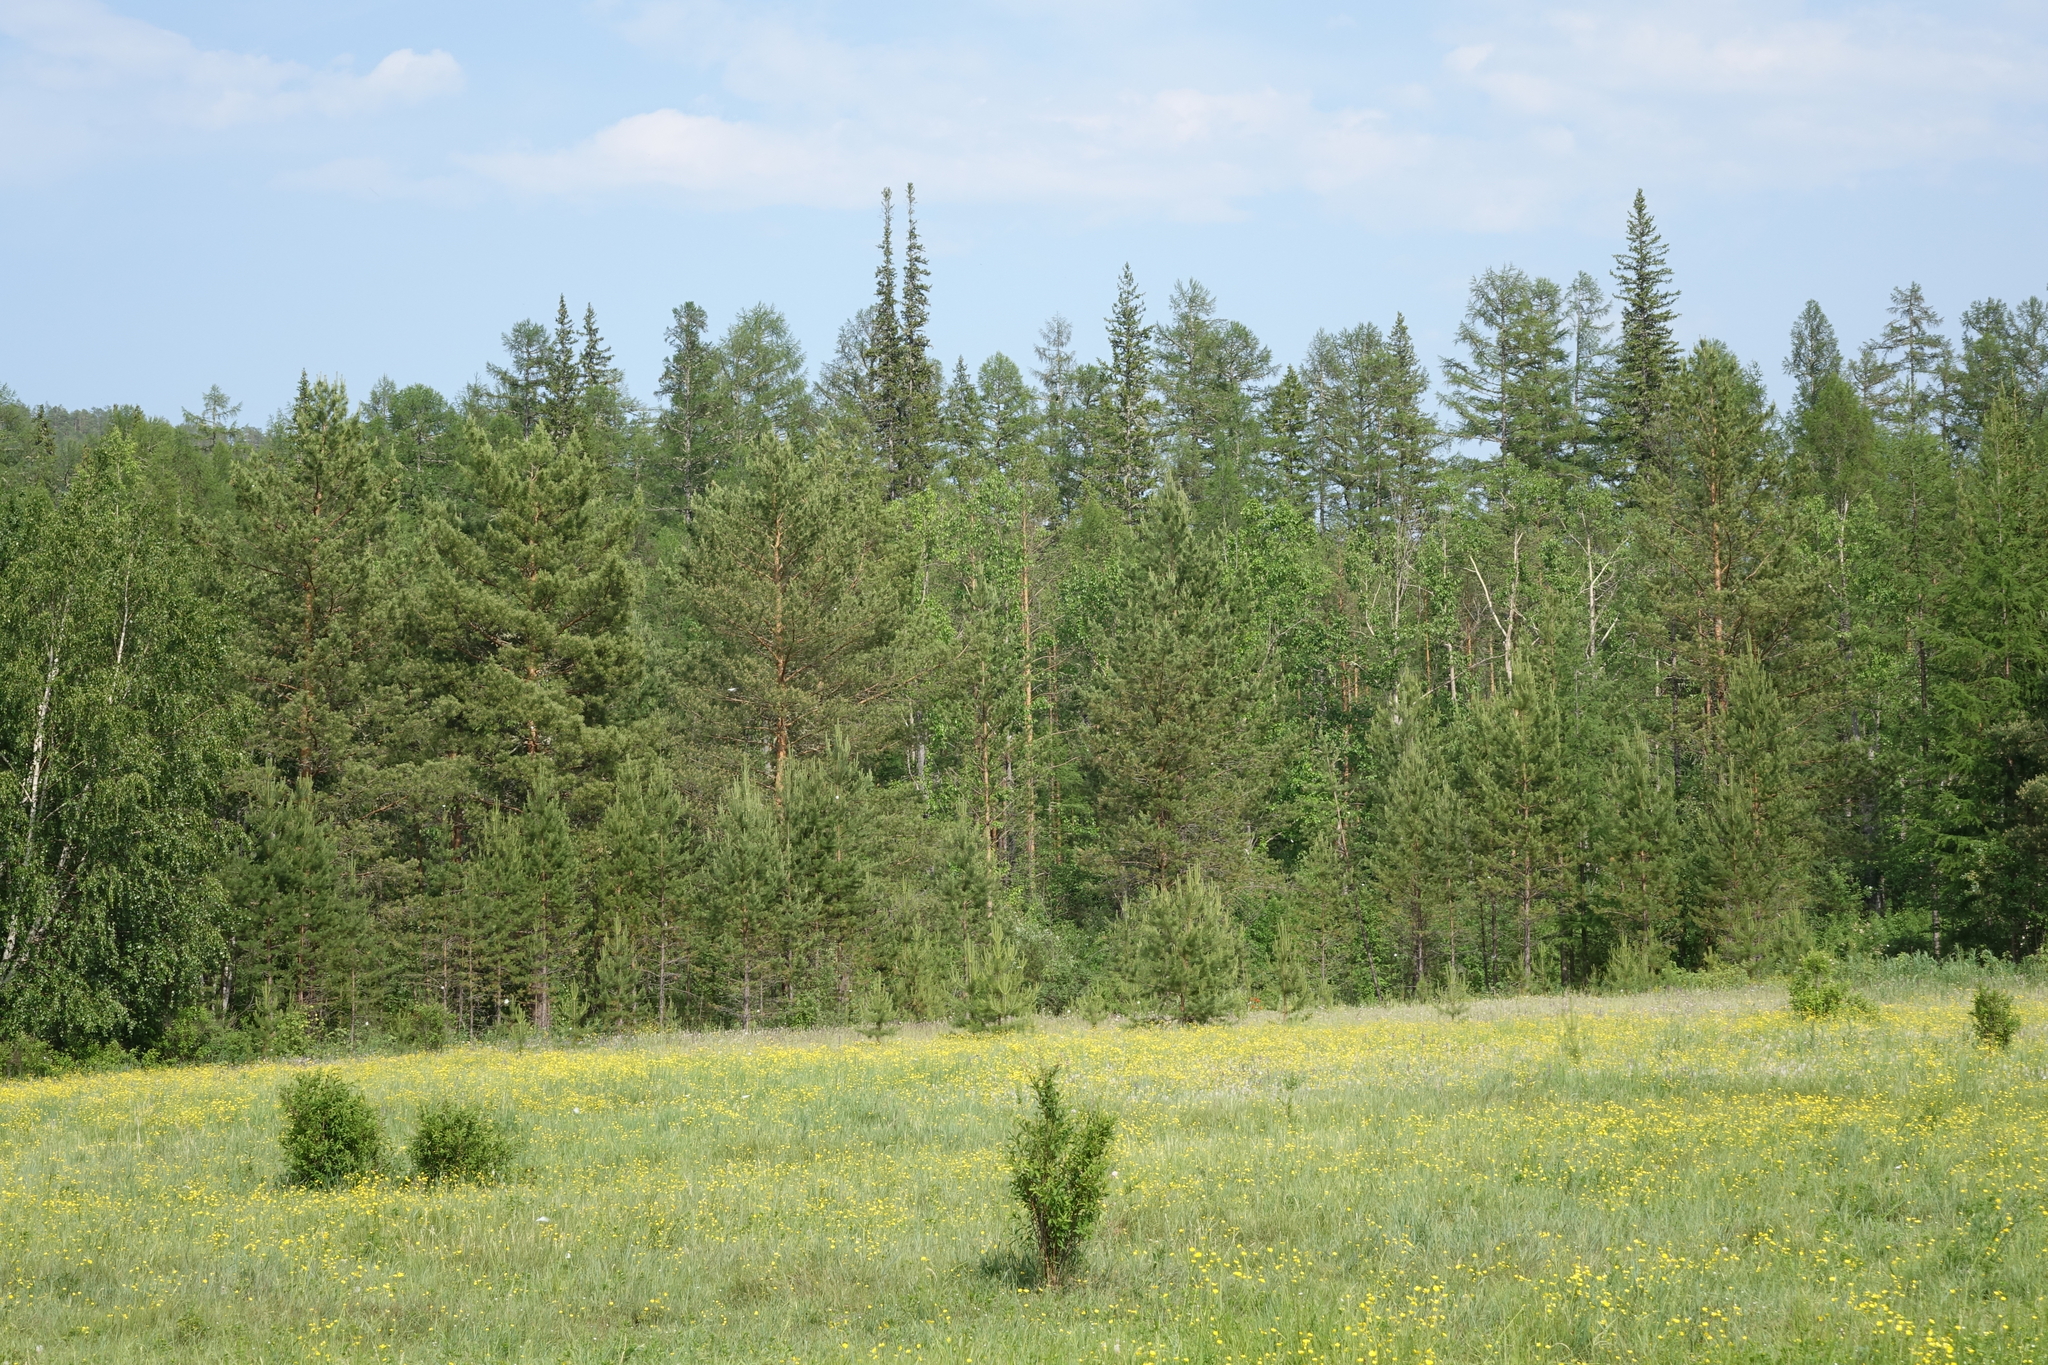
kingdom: Plantae
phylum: Tracheophyta
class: Pinopsida
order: Pinales
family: Pinaceae
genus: Larix
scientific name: Larix gmelinii
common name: Dahurian larch
